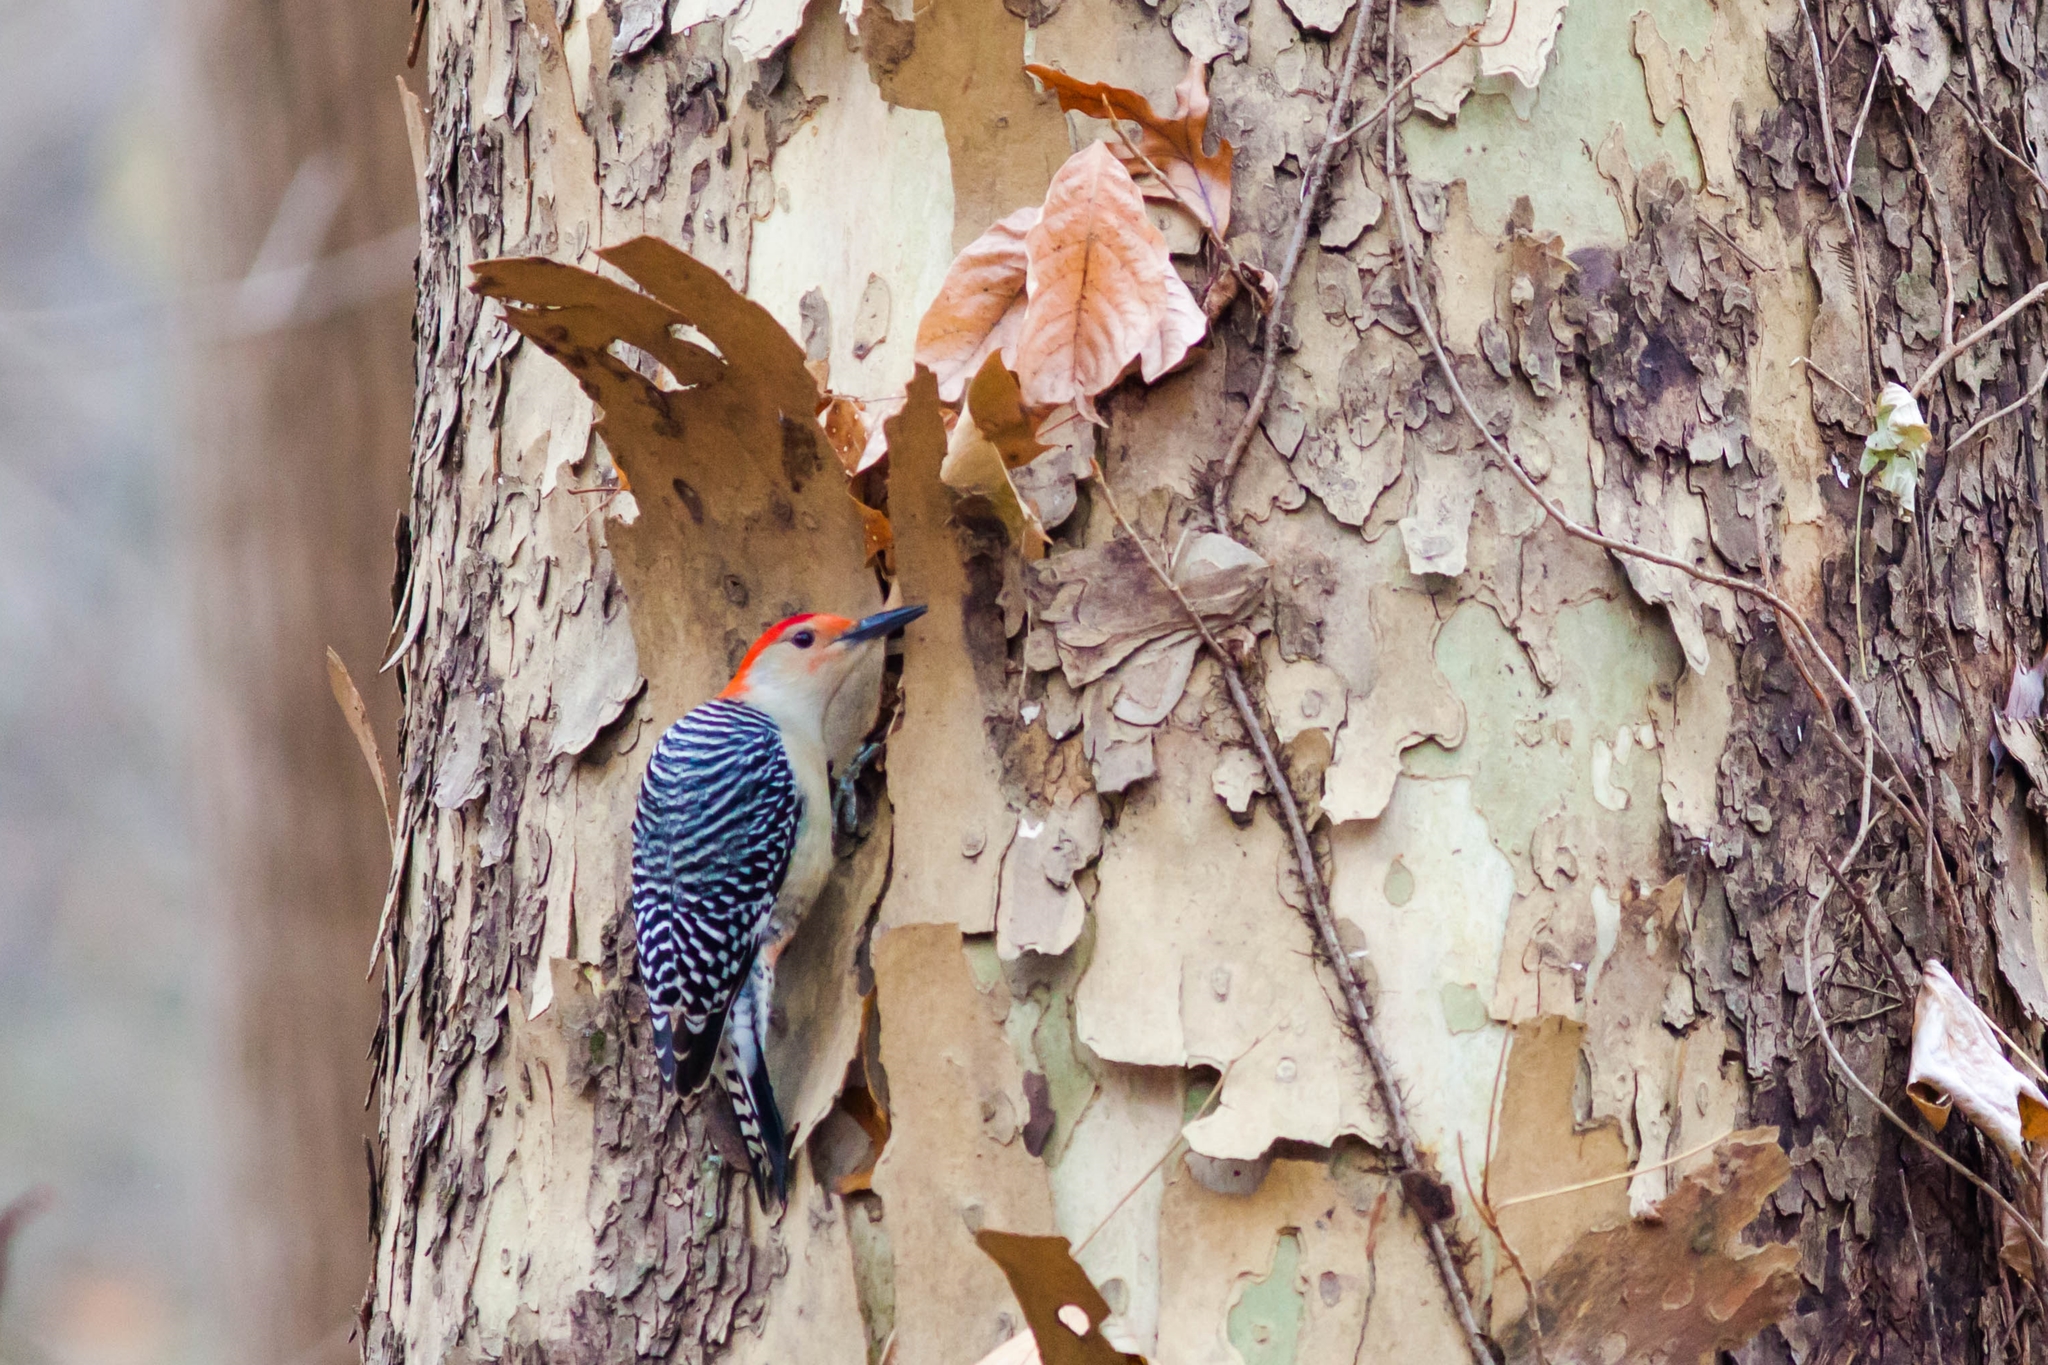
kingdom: Animalia
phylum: Chordata
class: Aves
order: Piciformes
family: Picidae
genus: Melanerpes
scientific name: Melanerpes carolinus
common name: Red-bellied woodpecker
